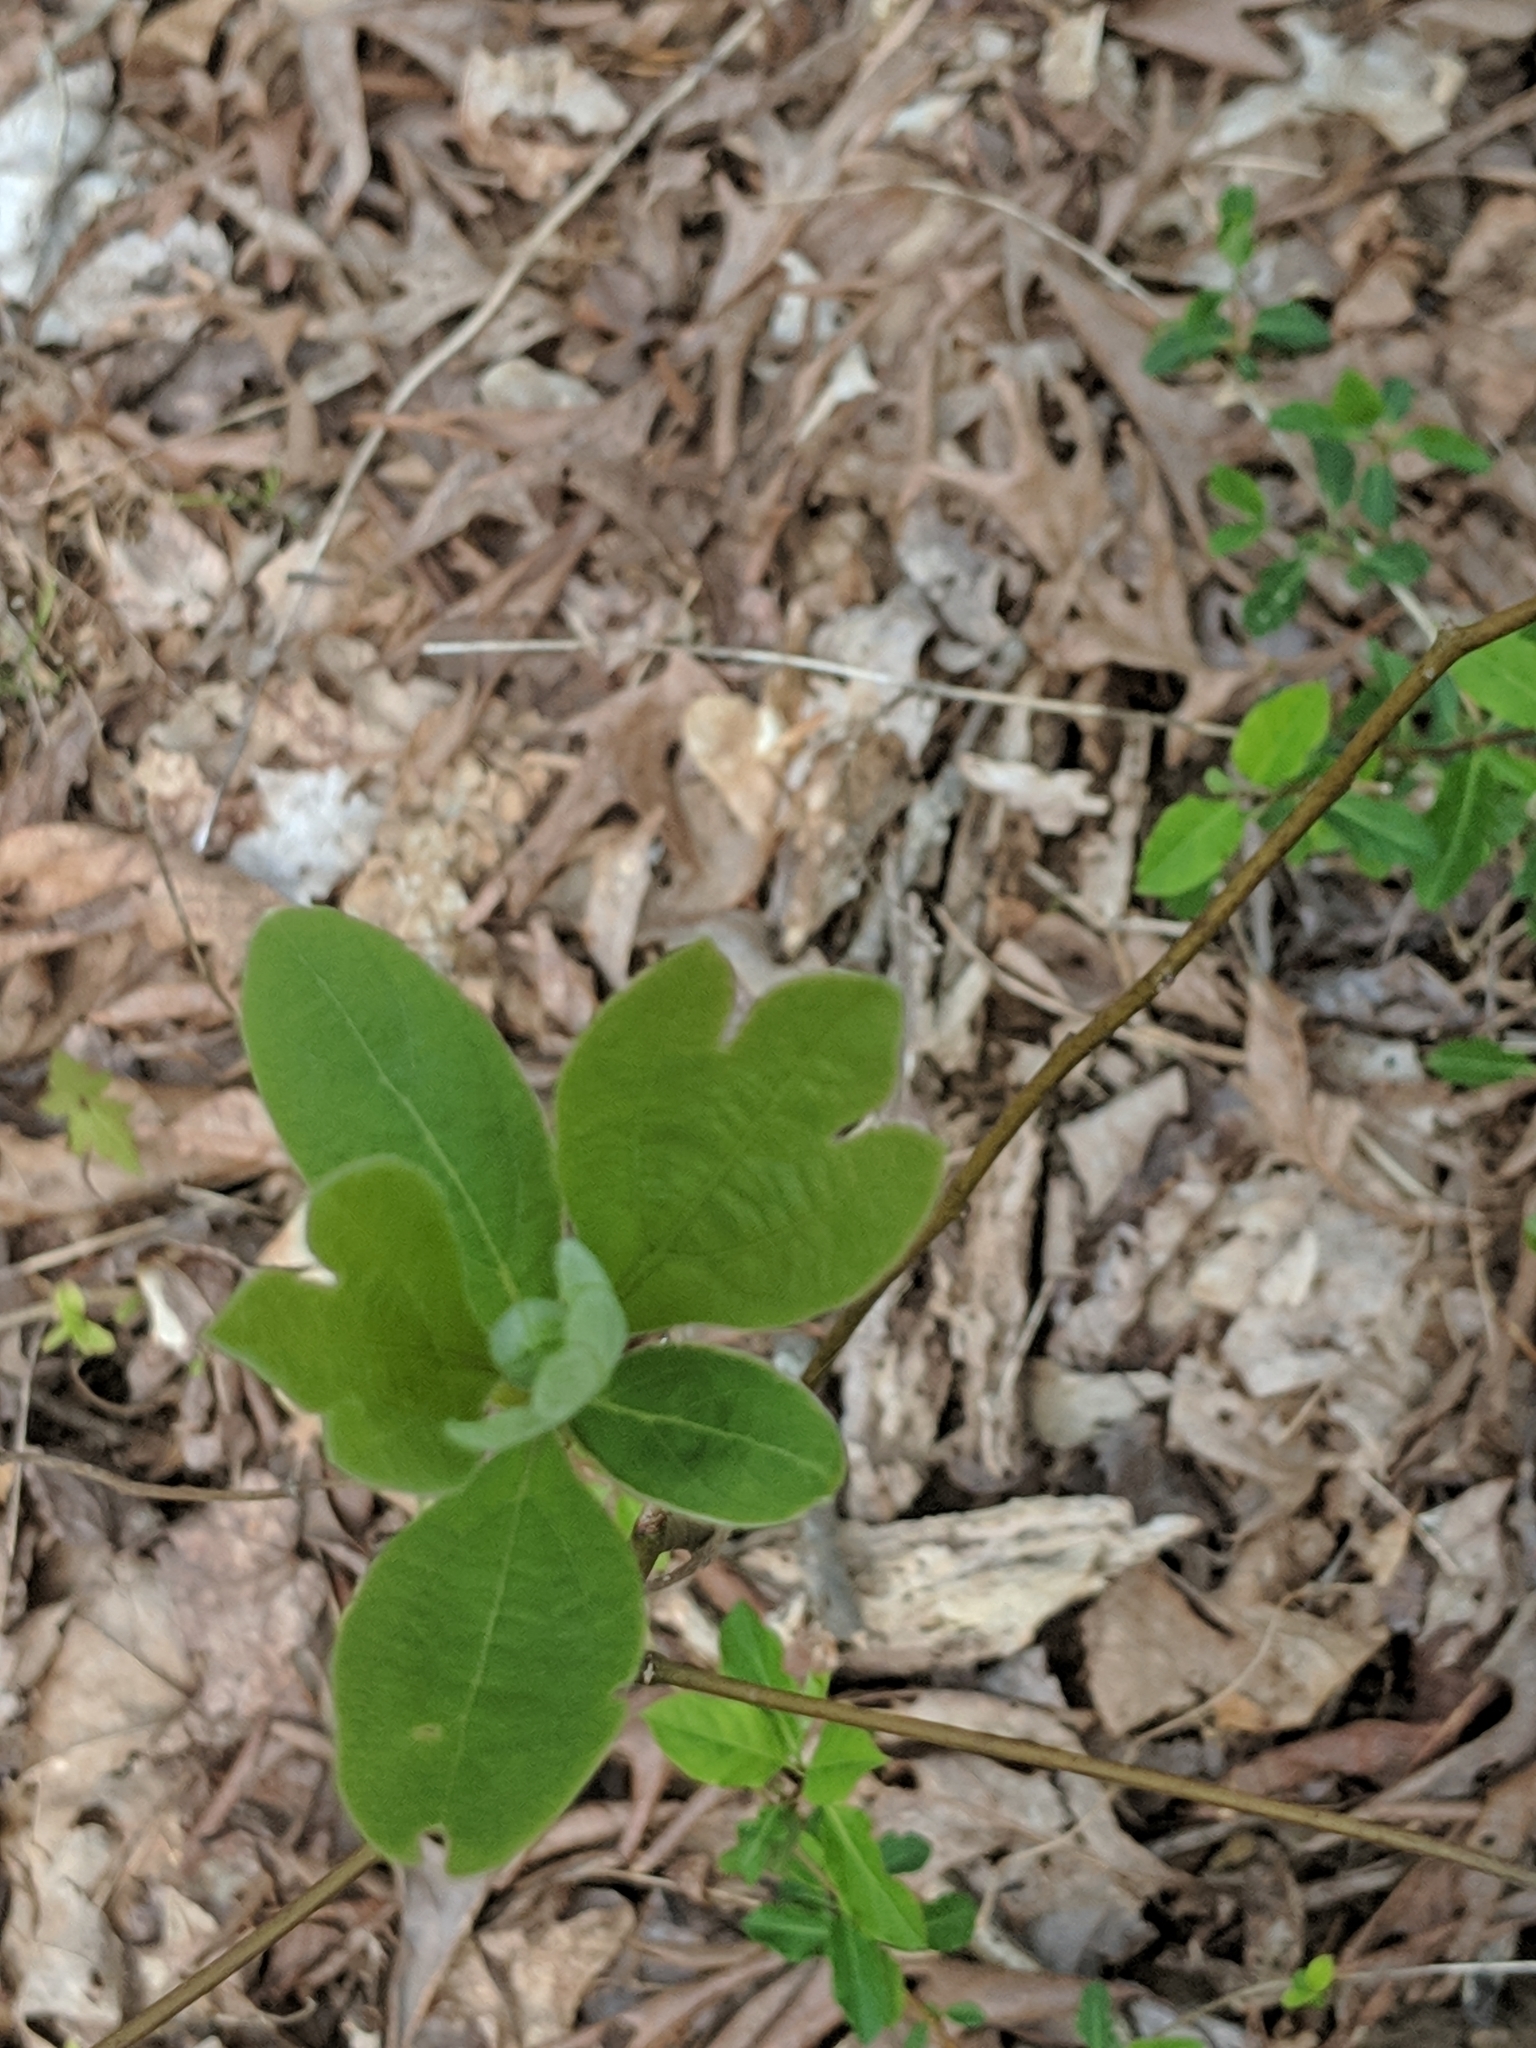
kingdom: Plantae
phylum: Tracheophyta
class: Magnoliopsida
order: Laurales
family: Lauraceae
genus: Sassafras
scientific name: Sassafras albidum
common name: Sassafras
